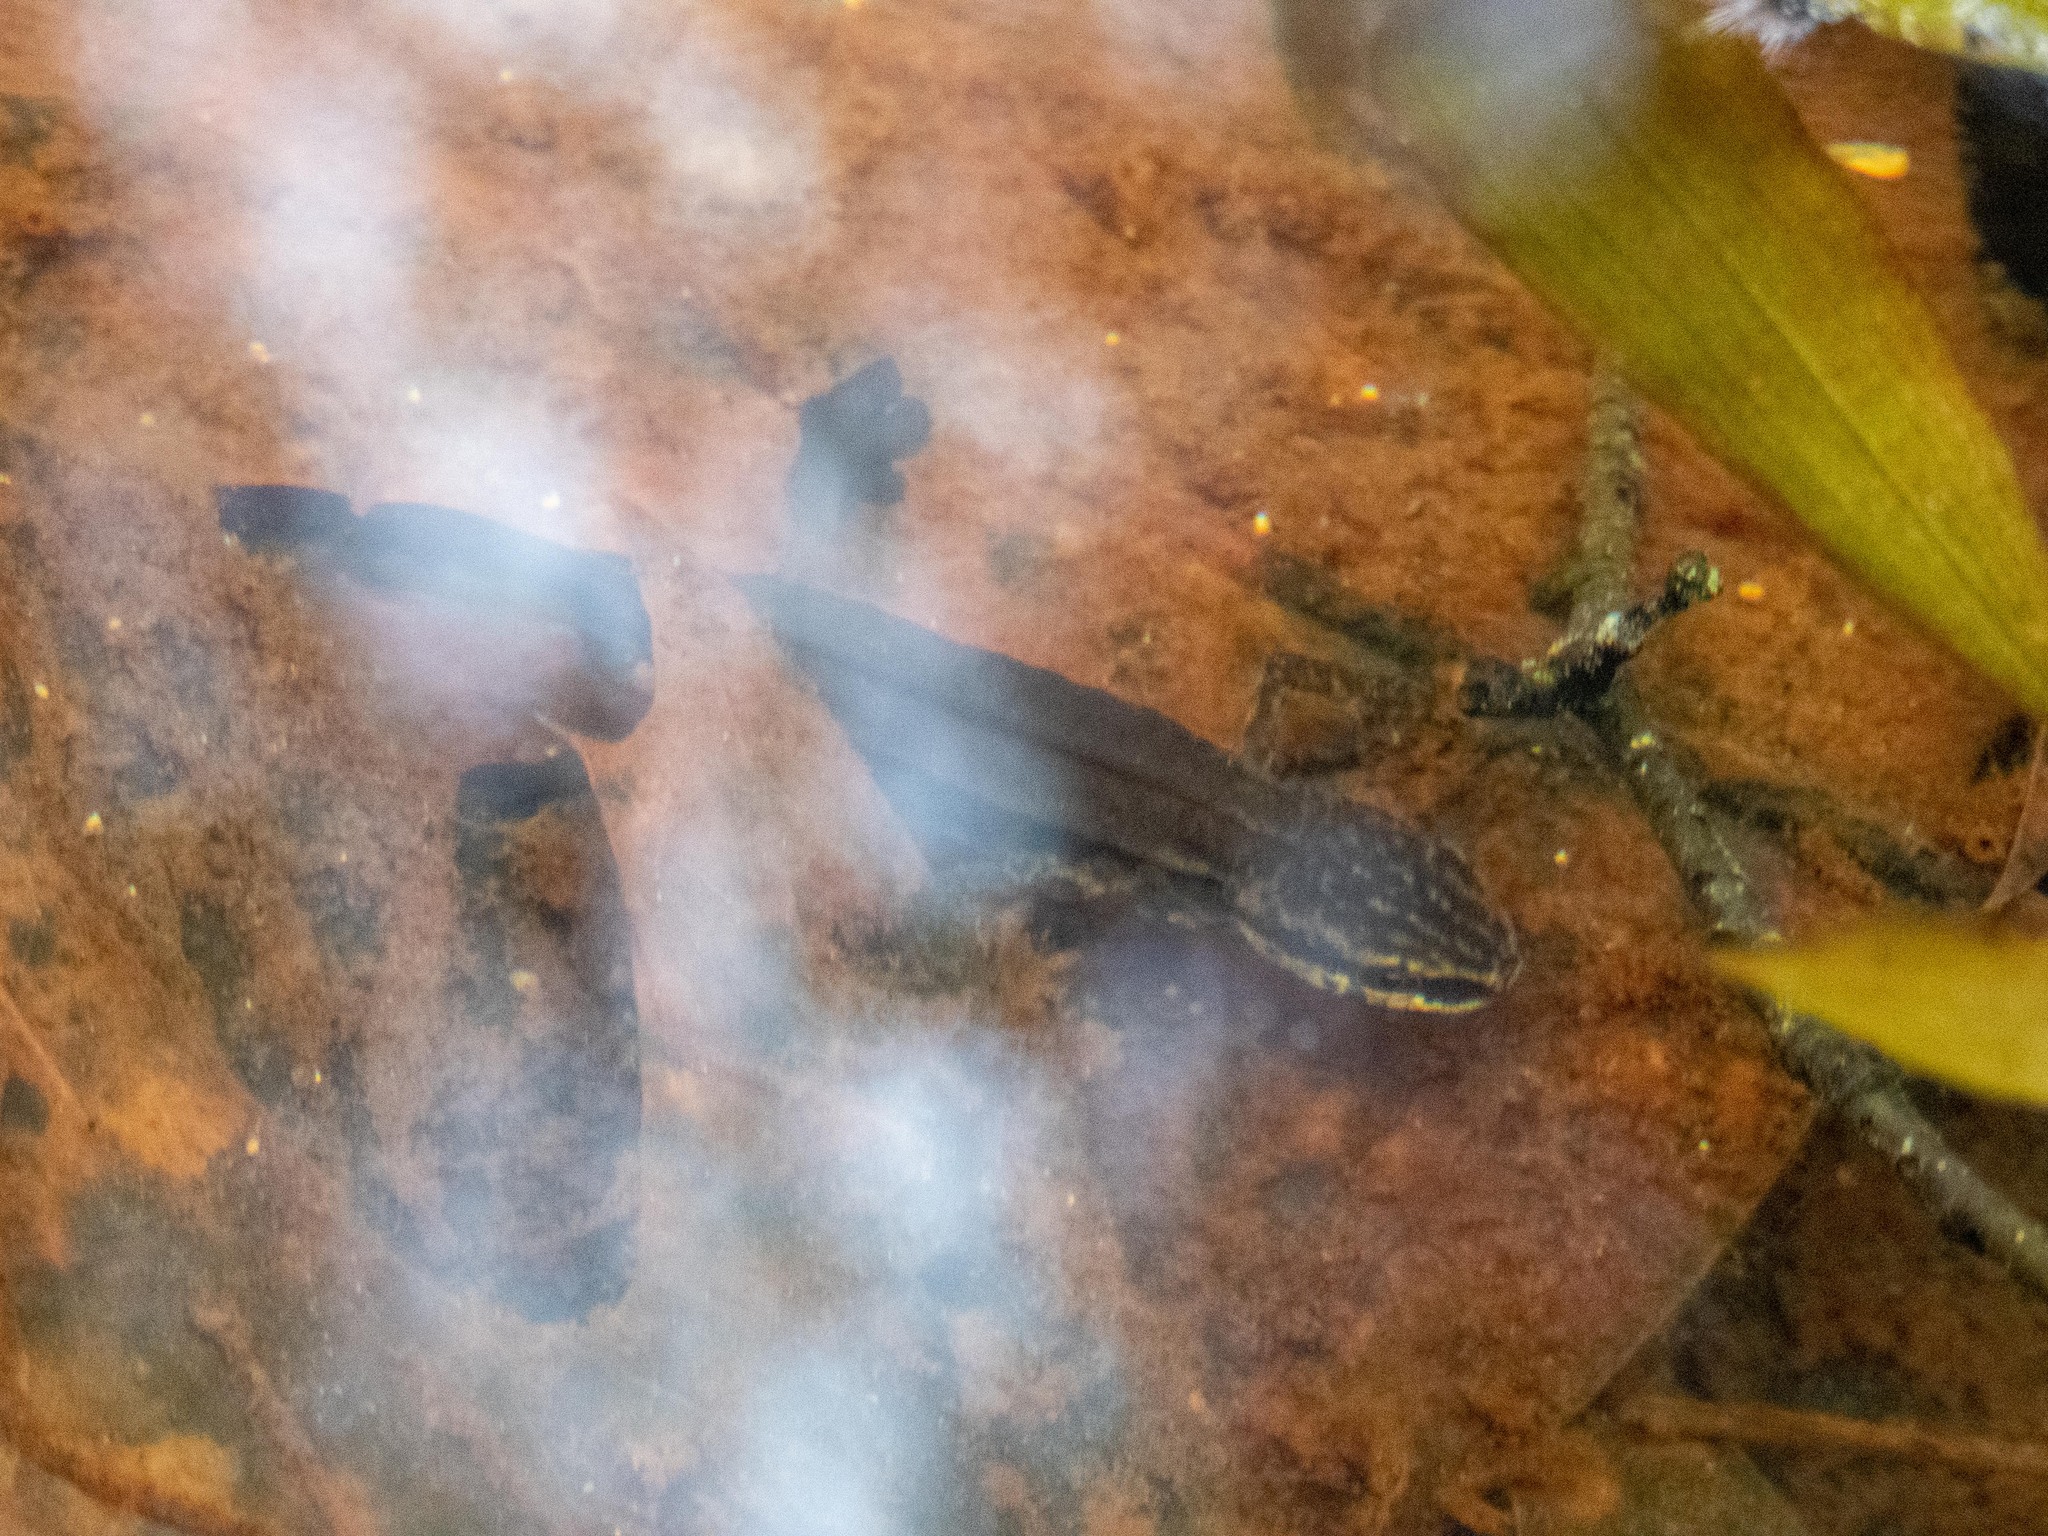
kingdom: Animalia
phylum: Chordata
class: Amphibia
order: Caudata
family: Salamandridae
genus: Lissotriton
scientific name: Lissotriton helveticus
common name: Palmate newt
